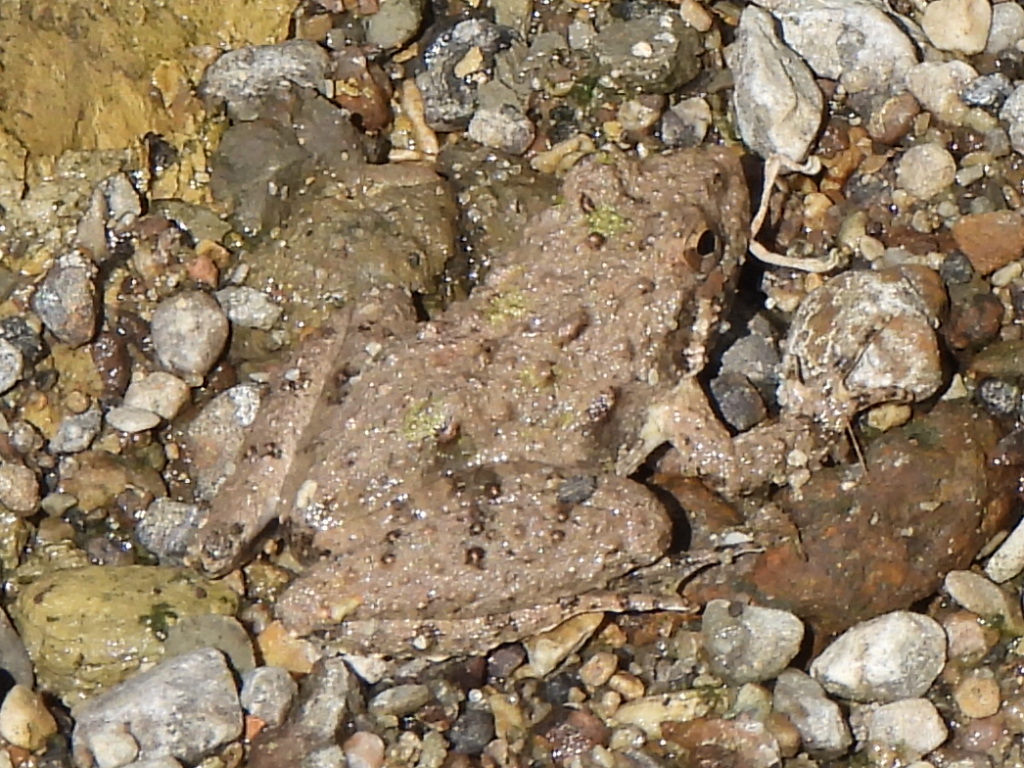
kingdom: Animalia
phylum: Chordata
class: Amphibia
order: Anura
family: Hylidae
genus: Acris
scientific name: Acris blanchardi
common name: Blanchard's cricket frog
